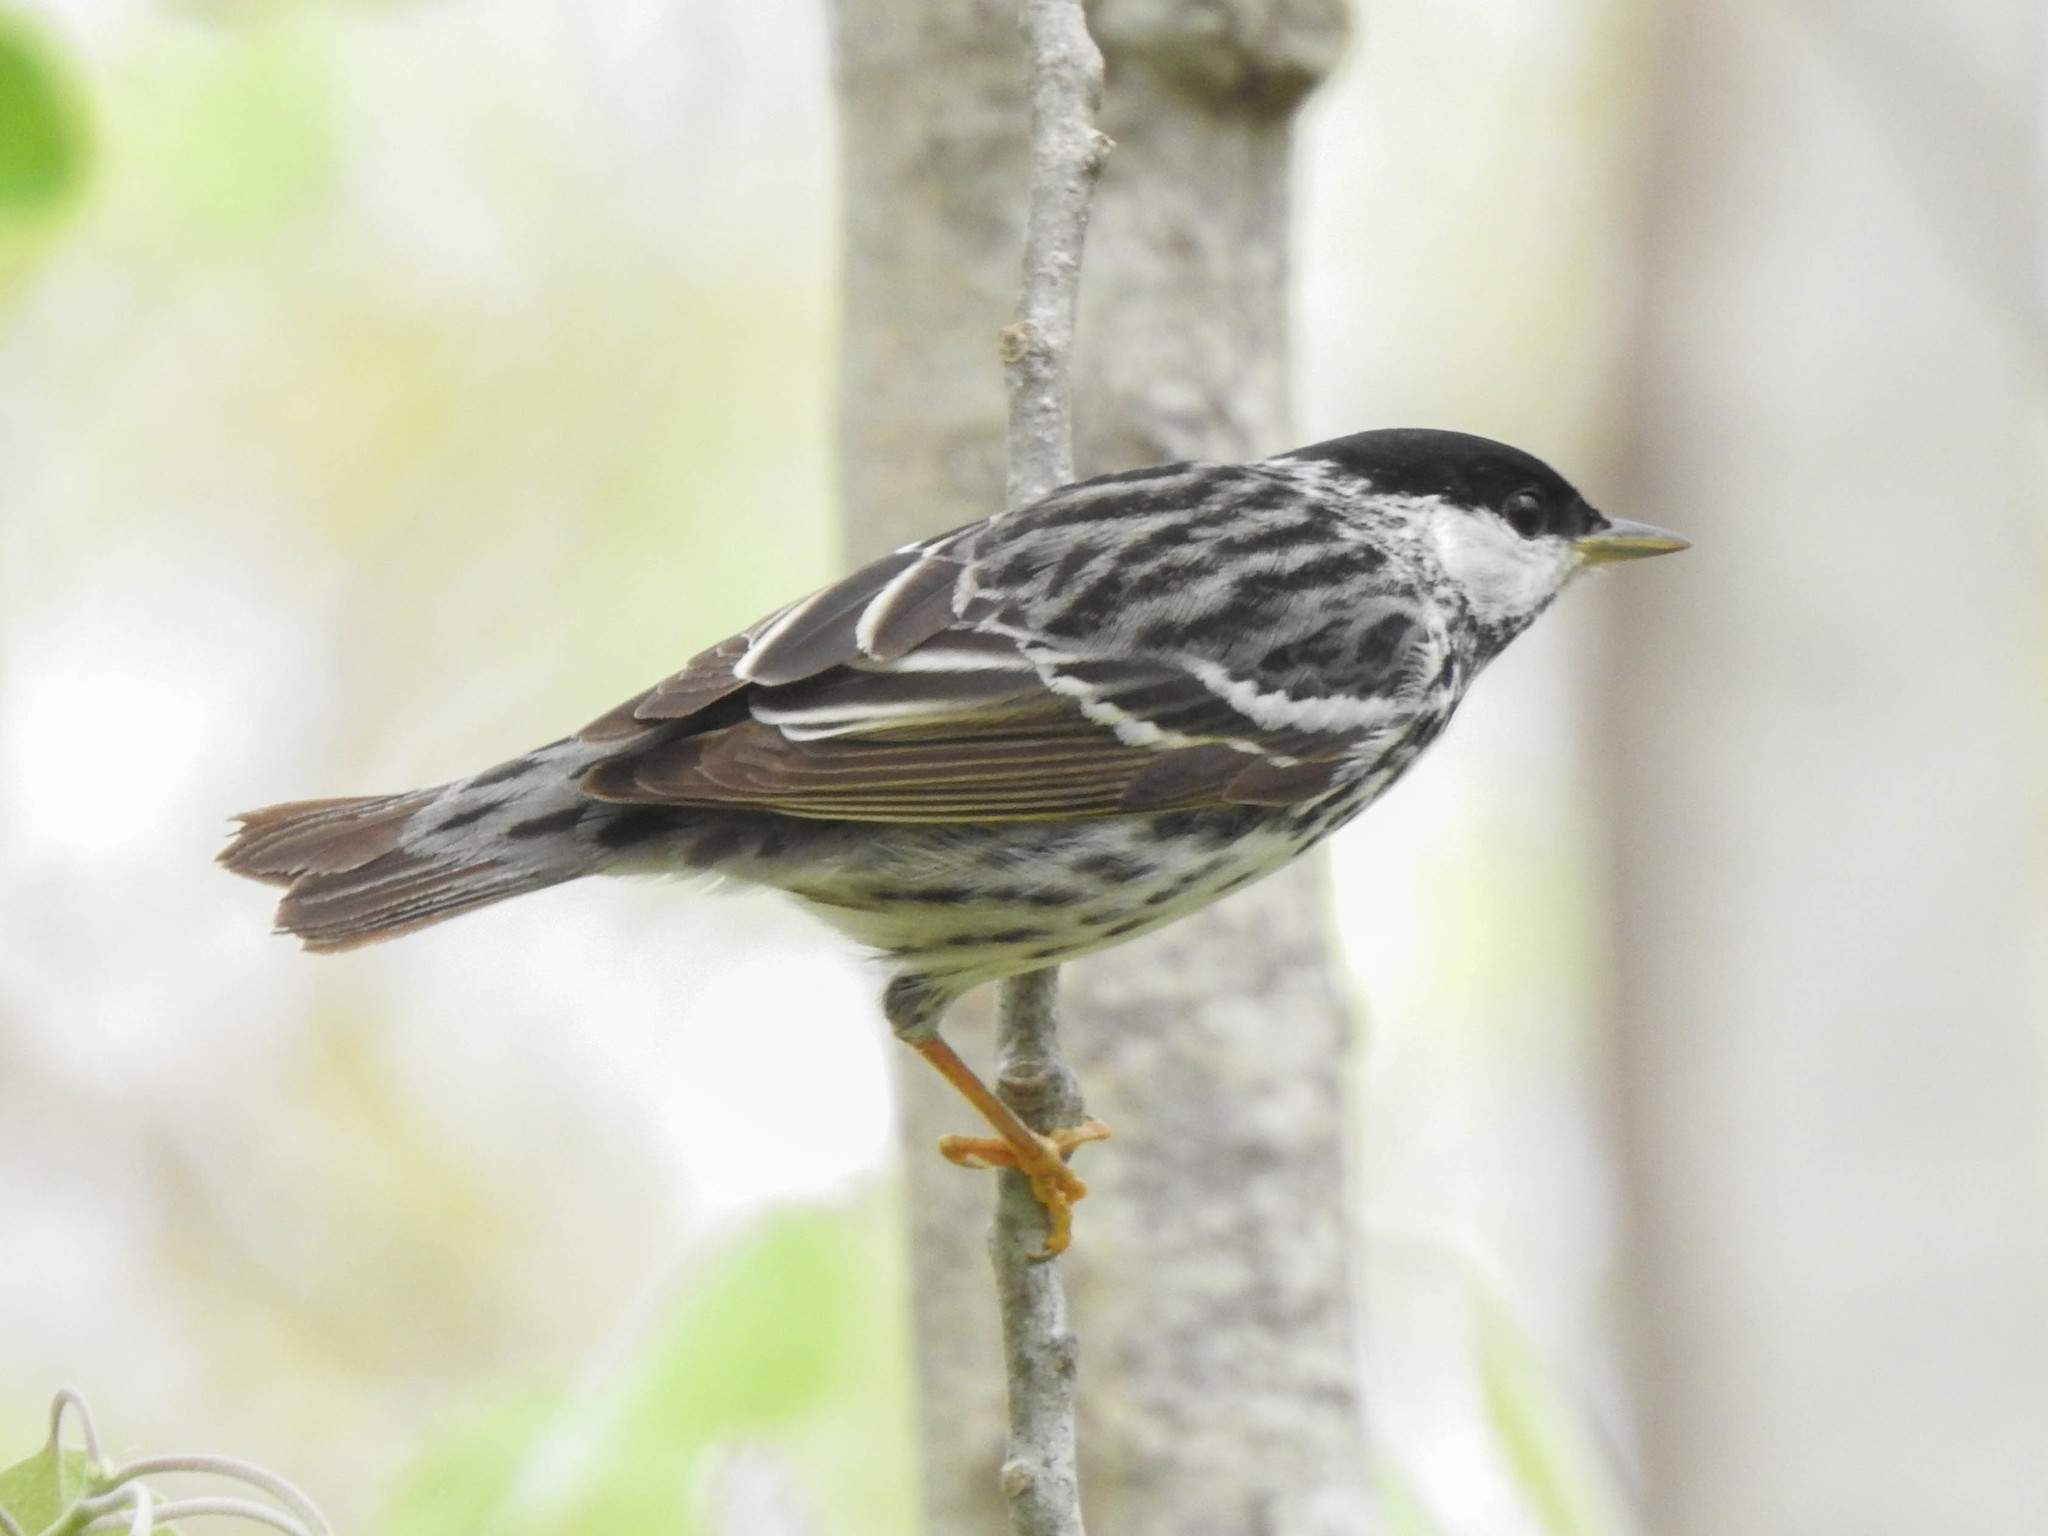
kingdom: Animalia
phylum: Chordata
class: Aves
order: Passeriformes
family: Parulidae
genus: Setophaga
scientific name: Setophaga striata
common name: Blackpoll warbler
